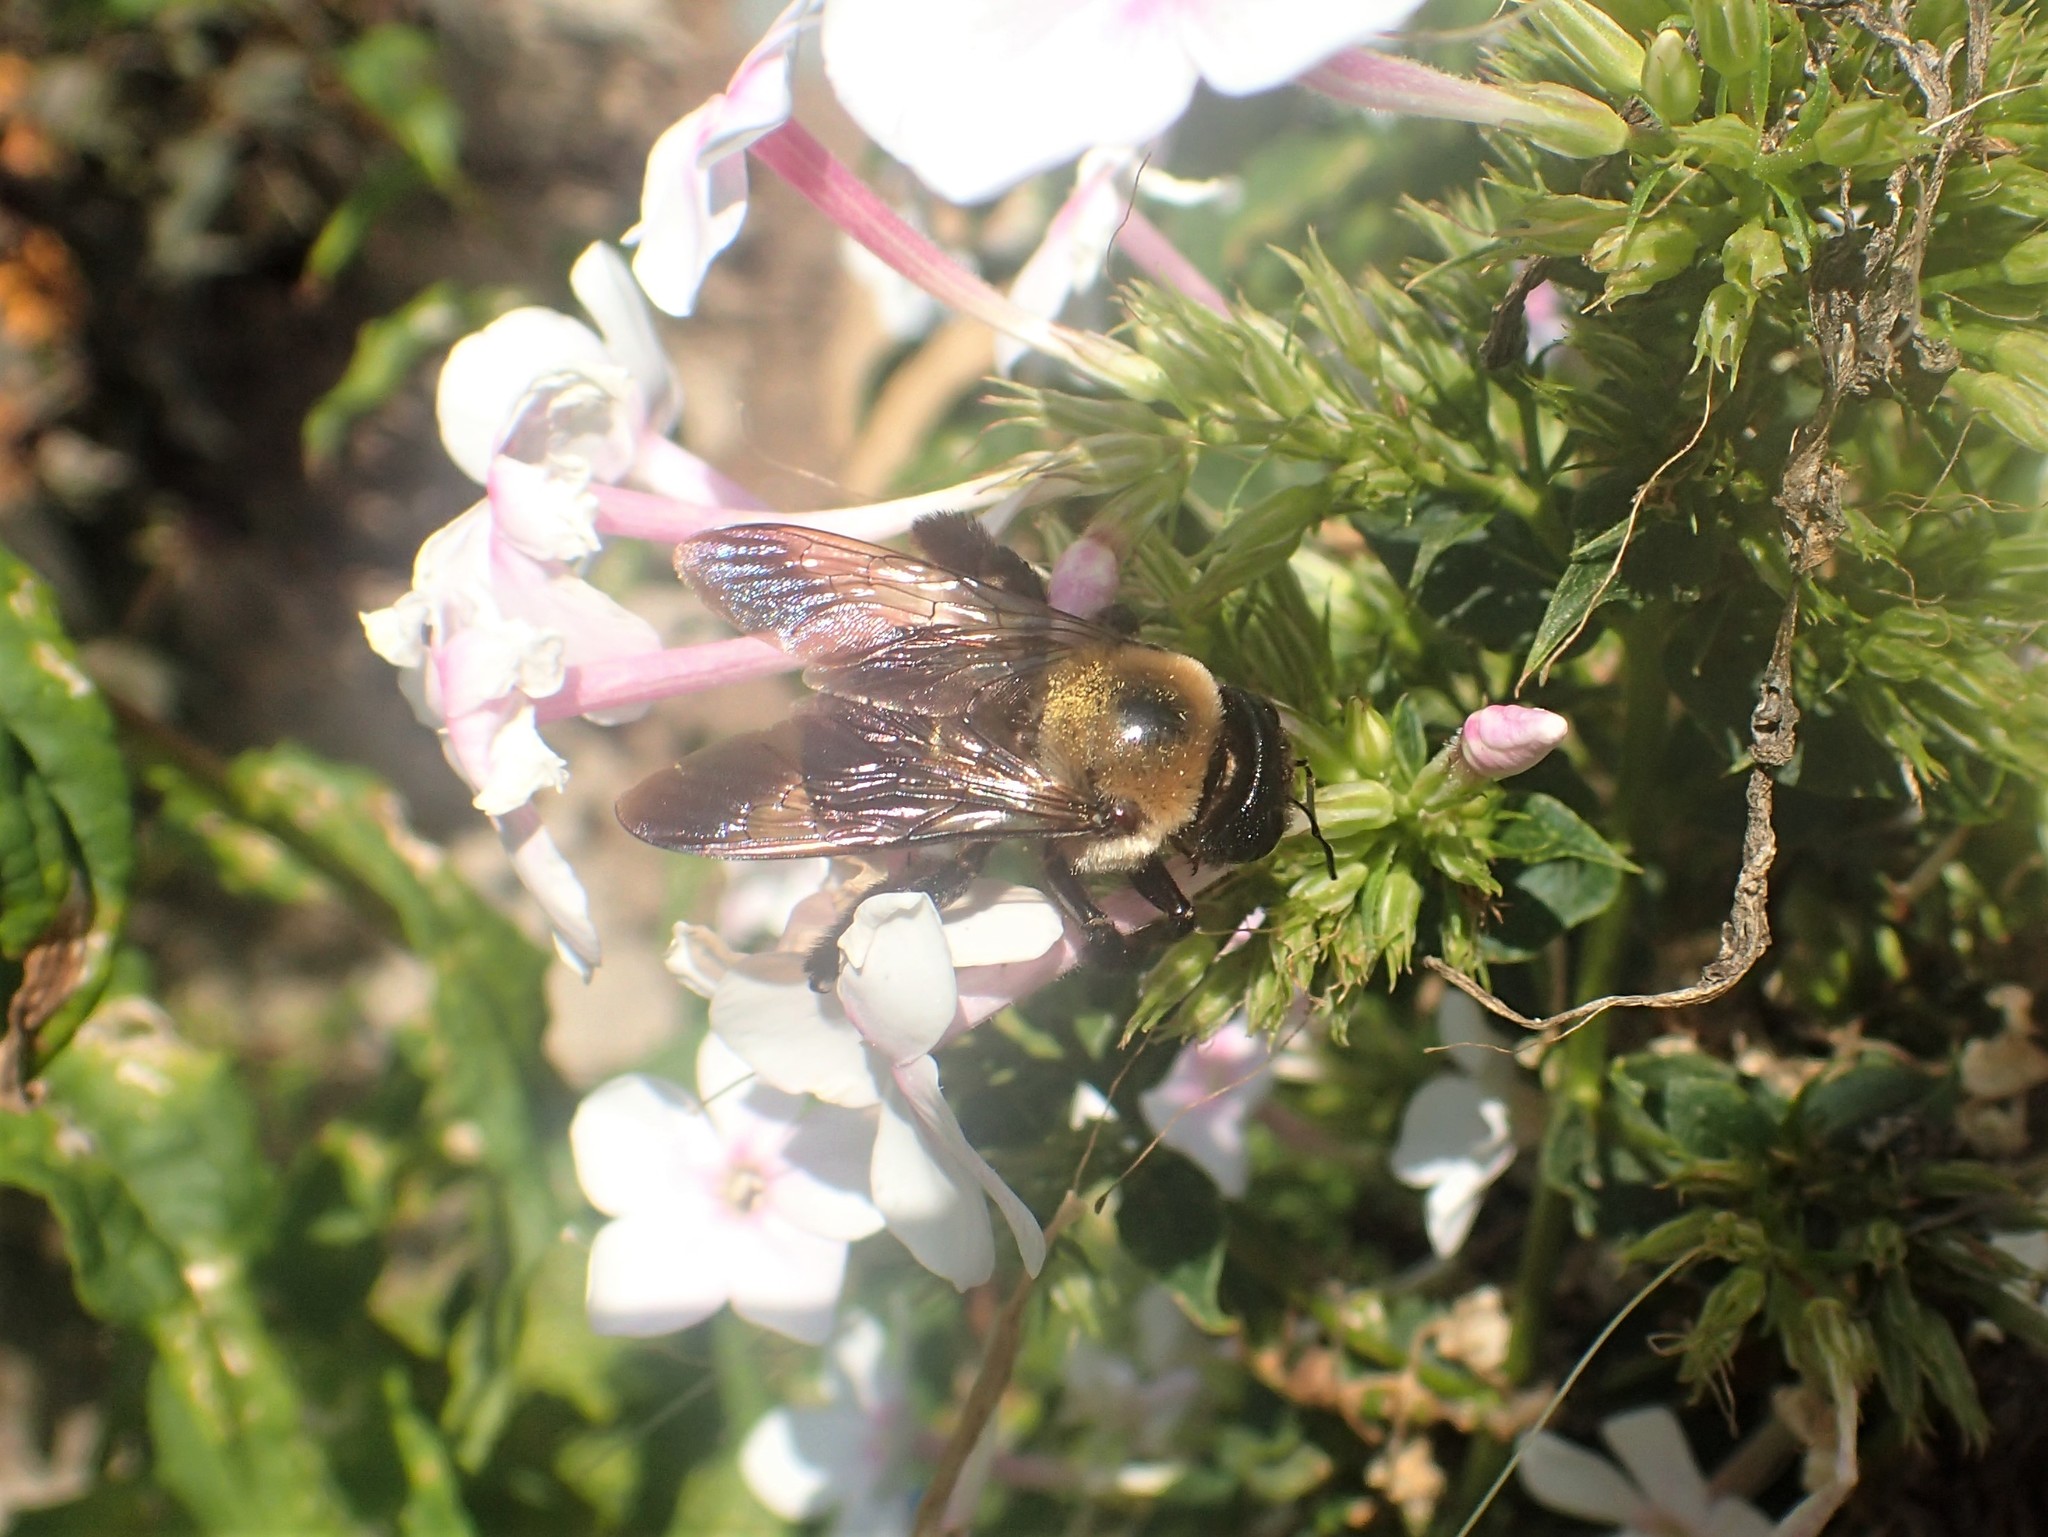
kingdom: Animalia
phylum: Arthropoda
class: Insecta
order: Hymenoptera
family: Apidae
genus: Xylocopa
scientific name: Xylocopa virginica
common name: Carpenter bee
